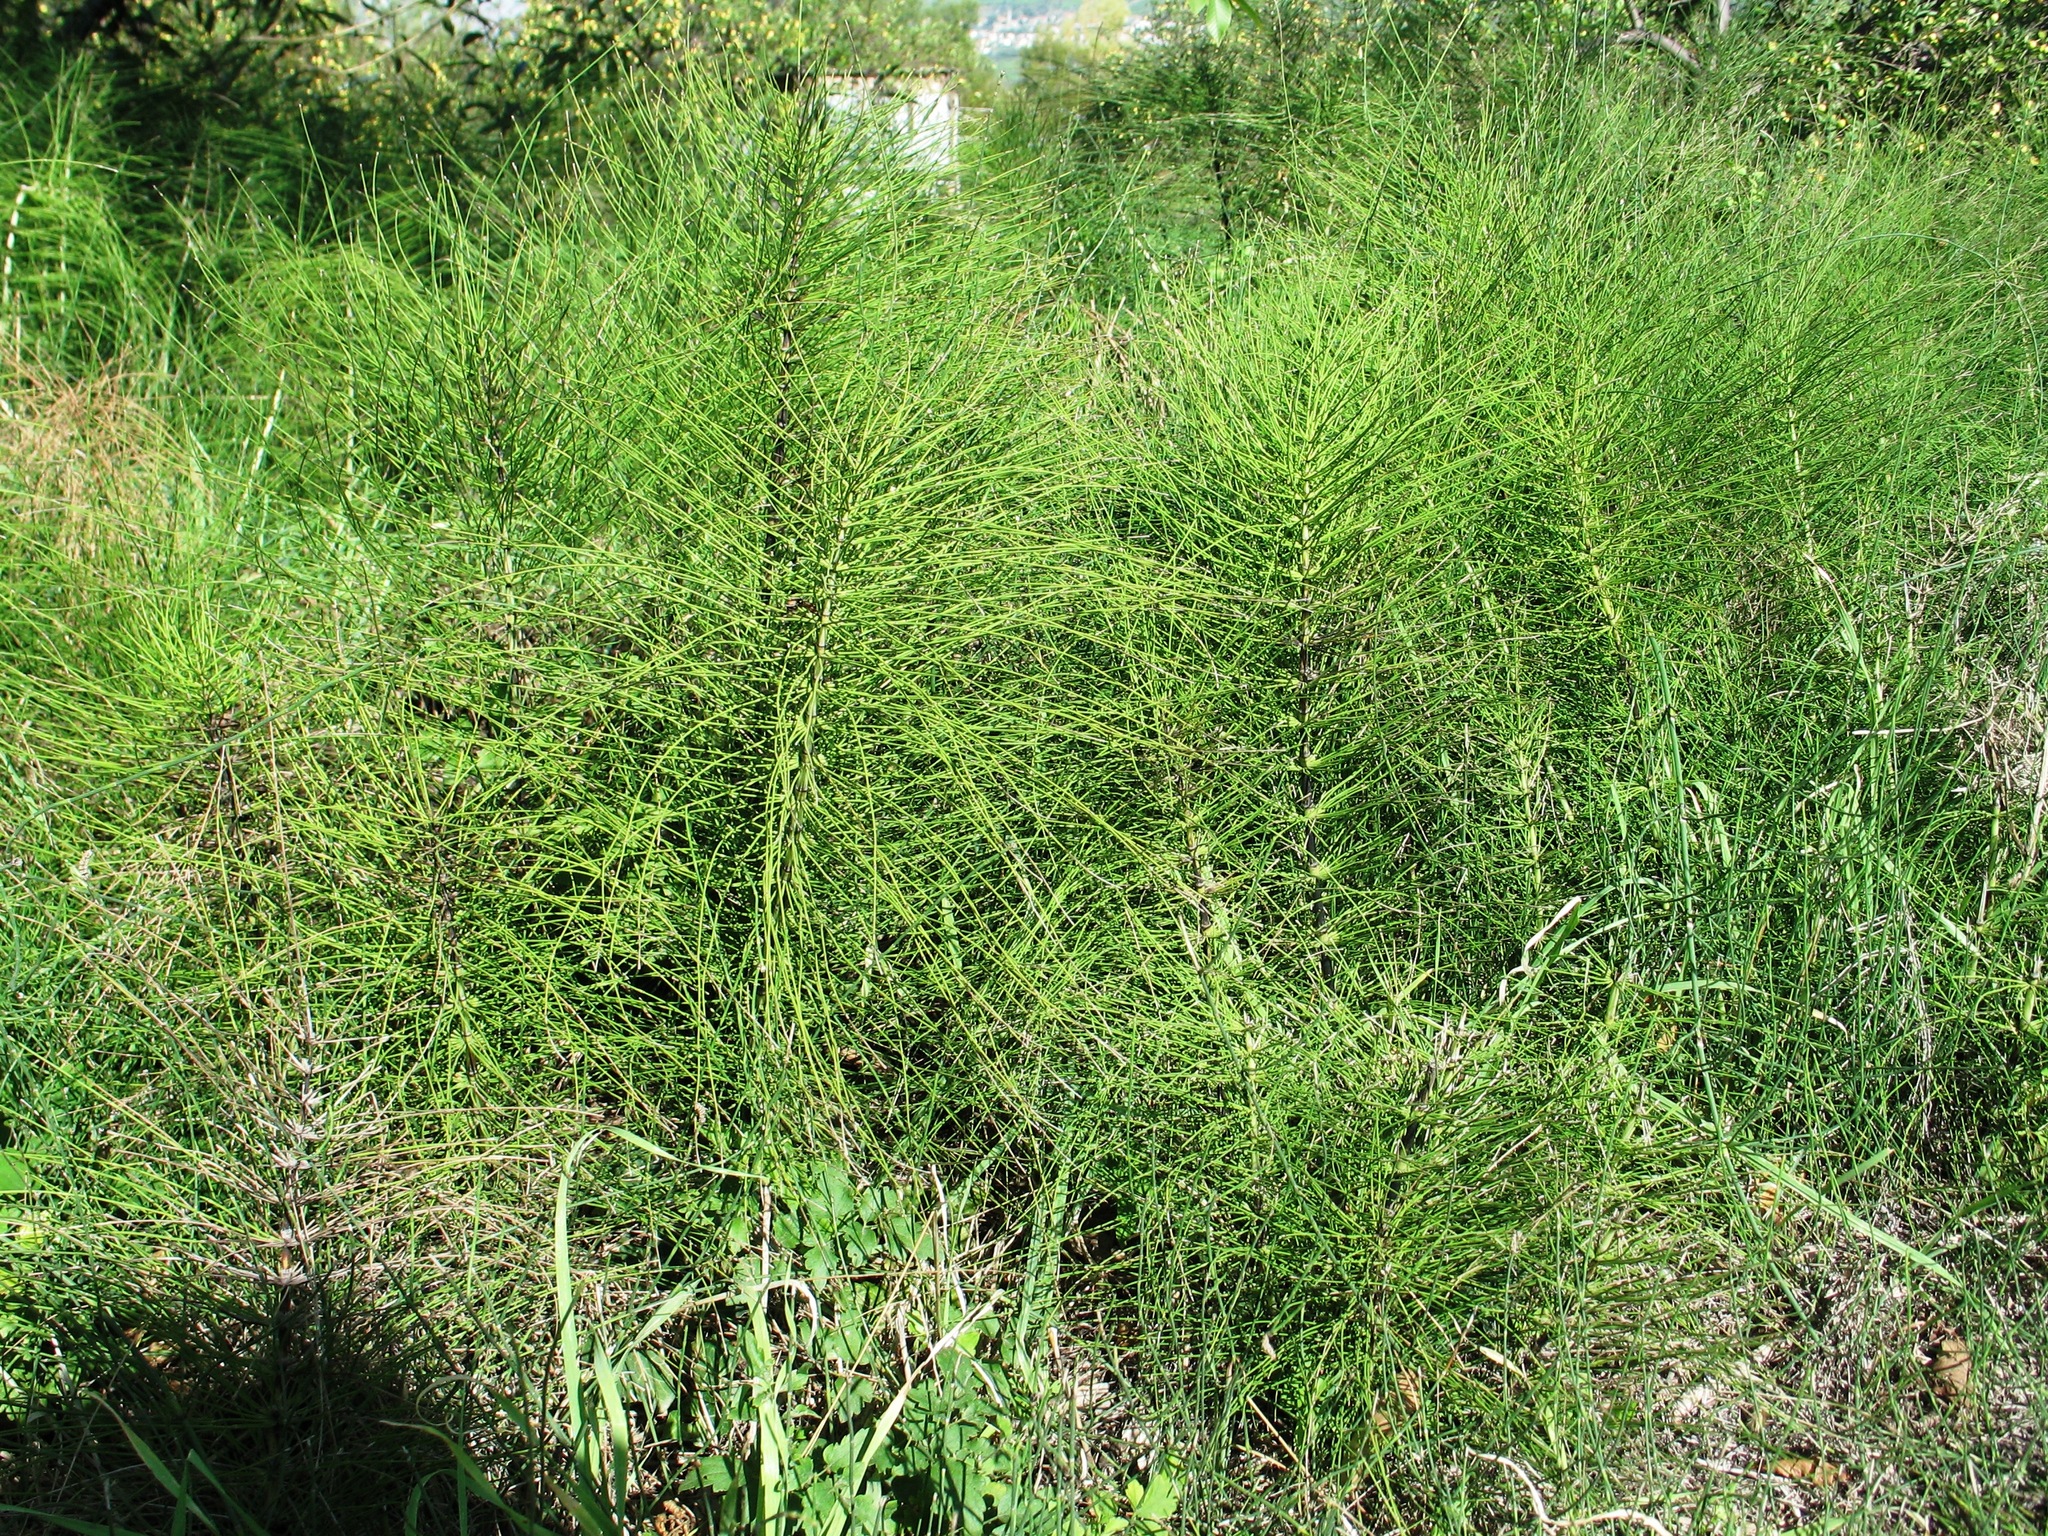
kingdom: Plantae
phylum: Tracheophyta
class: Polypodiopsida
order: Equisetales
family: Equisetaceae
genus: Equisetum
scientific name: Equisetum telmateia
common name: Great horsetail
